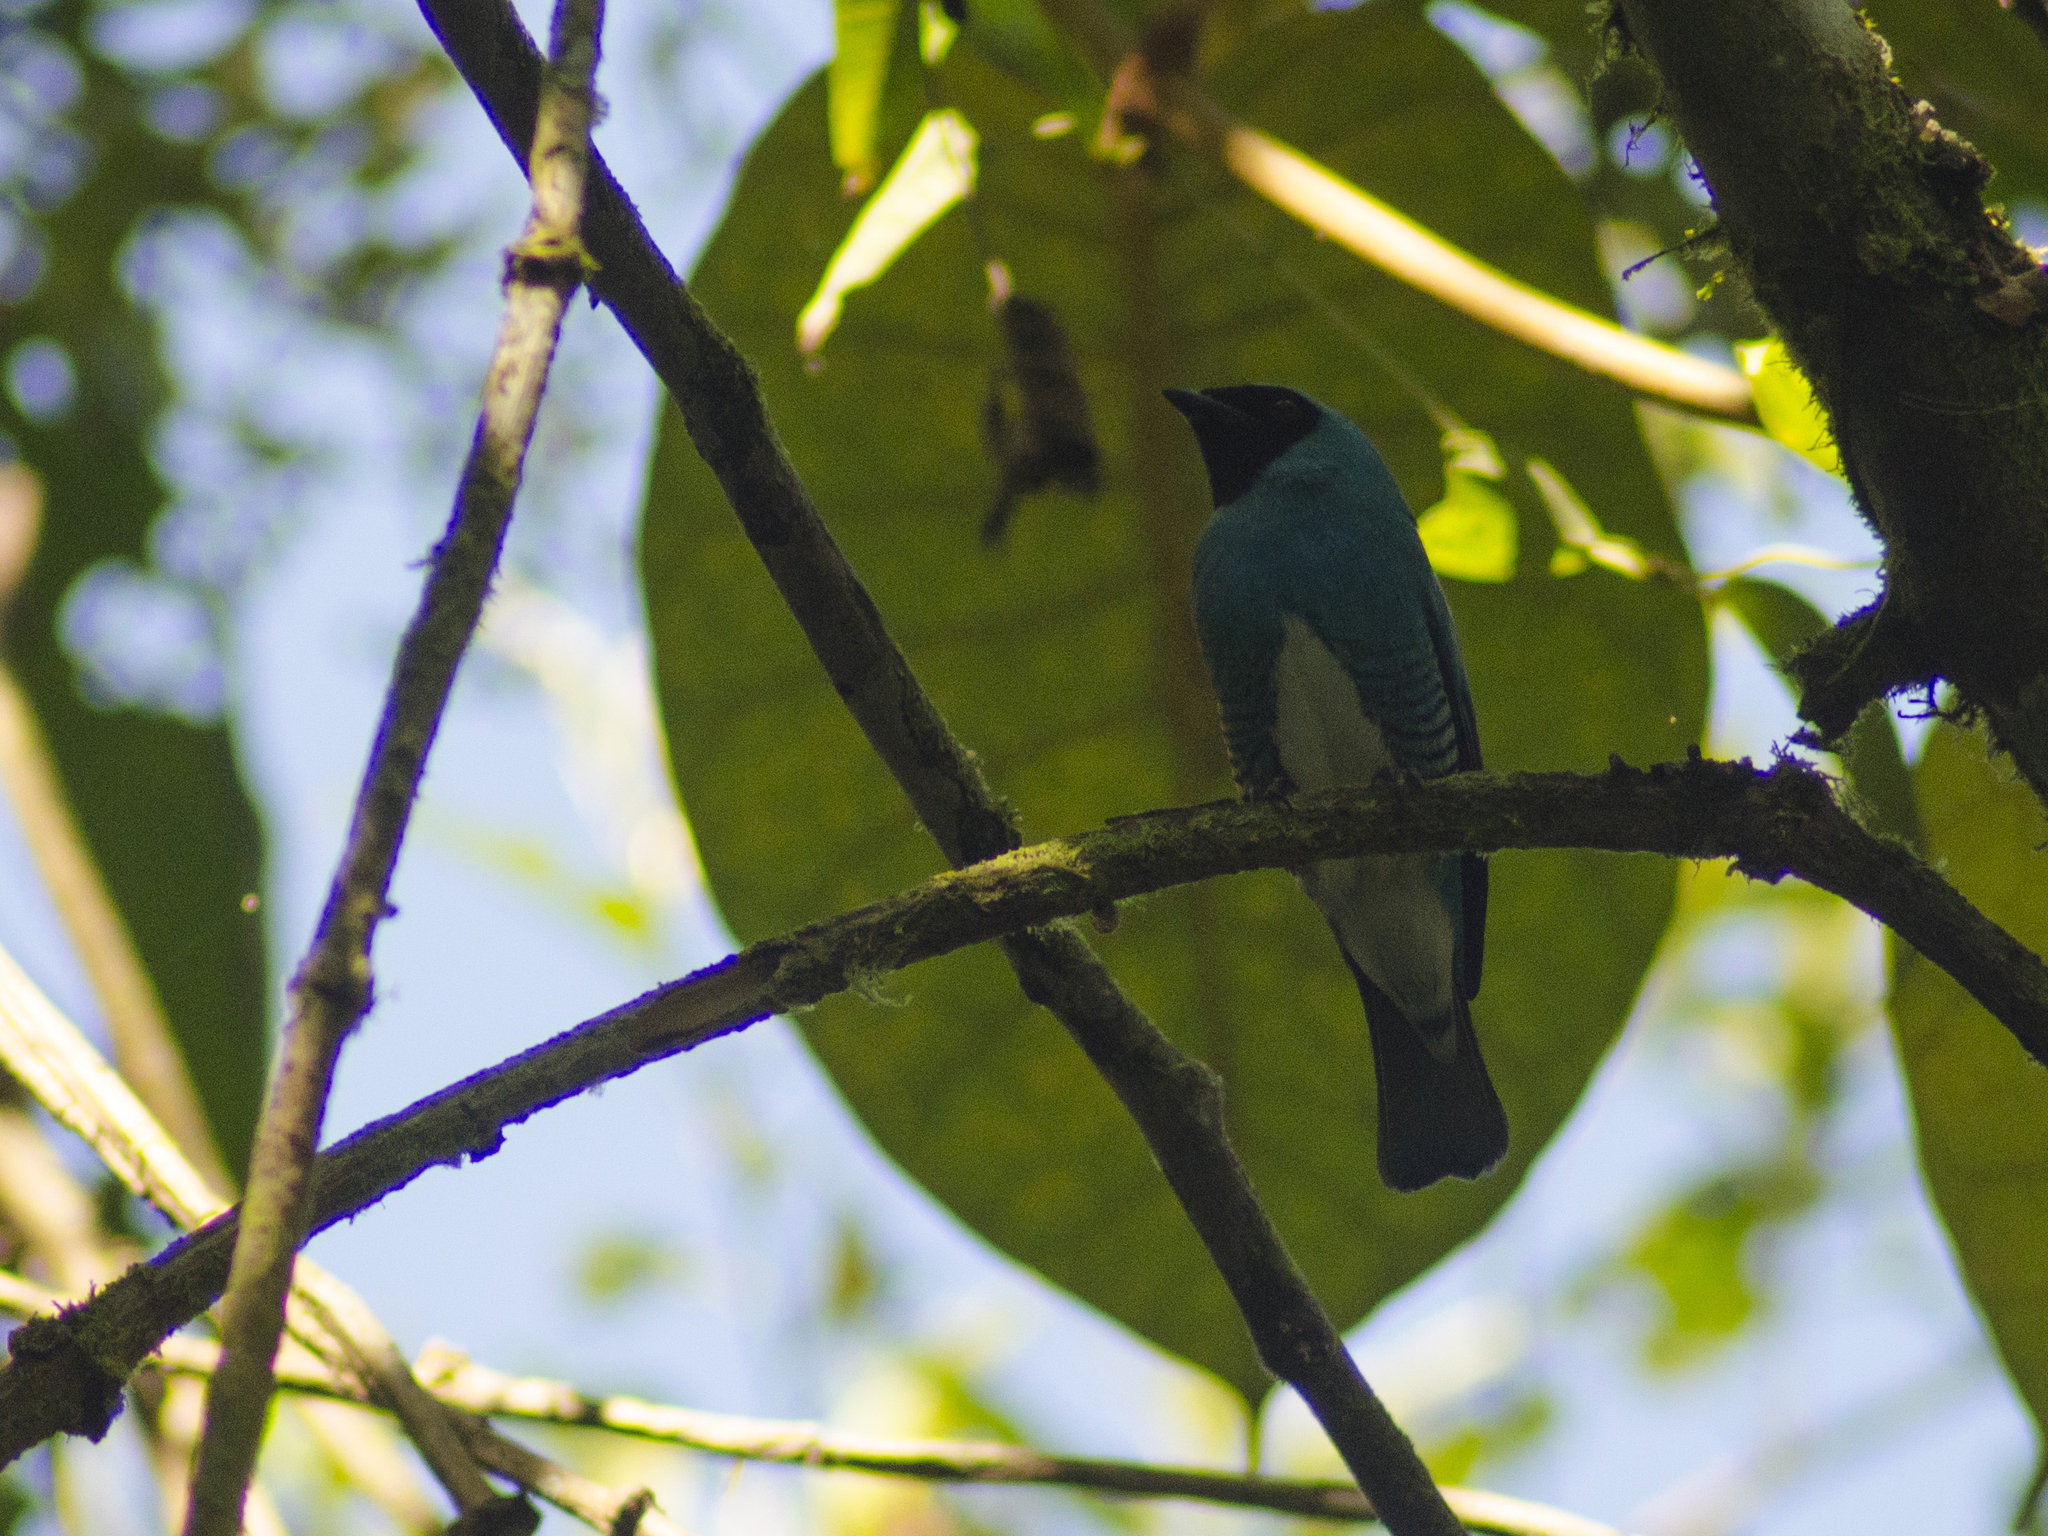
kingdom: Animalia
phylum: Chordata
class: Aves
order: Passeriformes
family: Thraupidae
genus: Tersina
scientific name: Tersina viridis
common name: Swallow tanager
